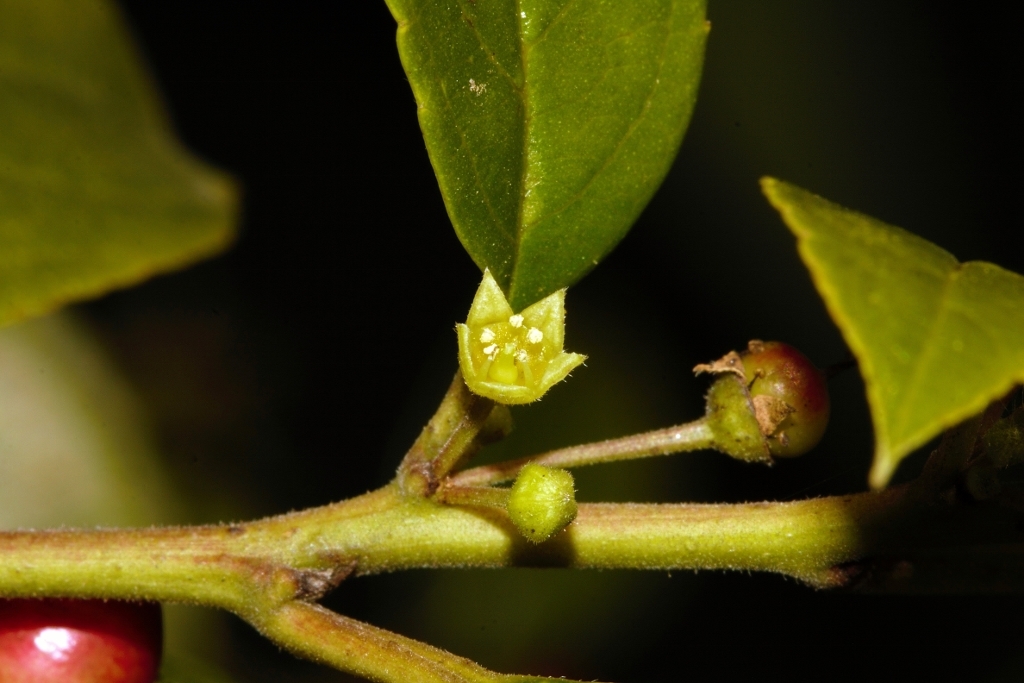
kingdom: Plantae
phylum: Tracheophyta
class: Magnoliopsida
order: Rosales
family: Rhamnaceae
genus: Rhamnus
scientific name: Rhamnus prinoides
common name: Dogwood
